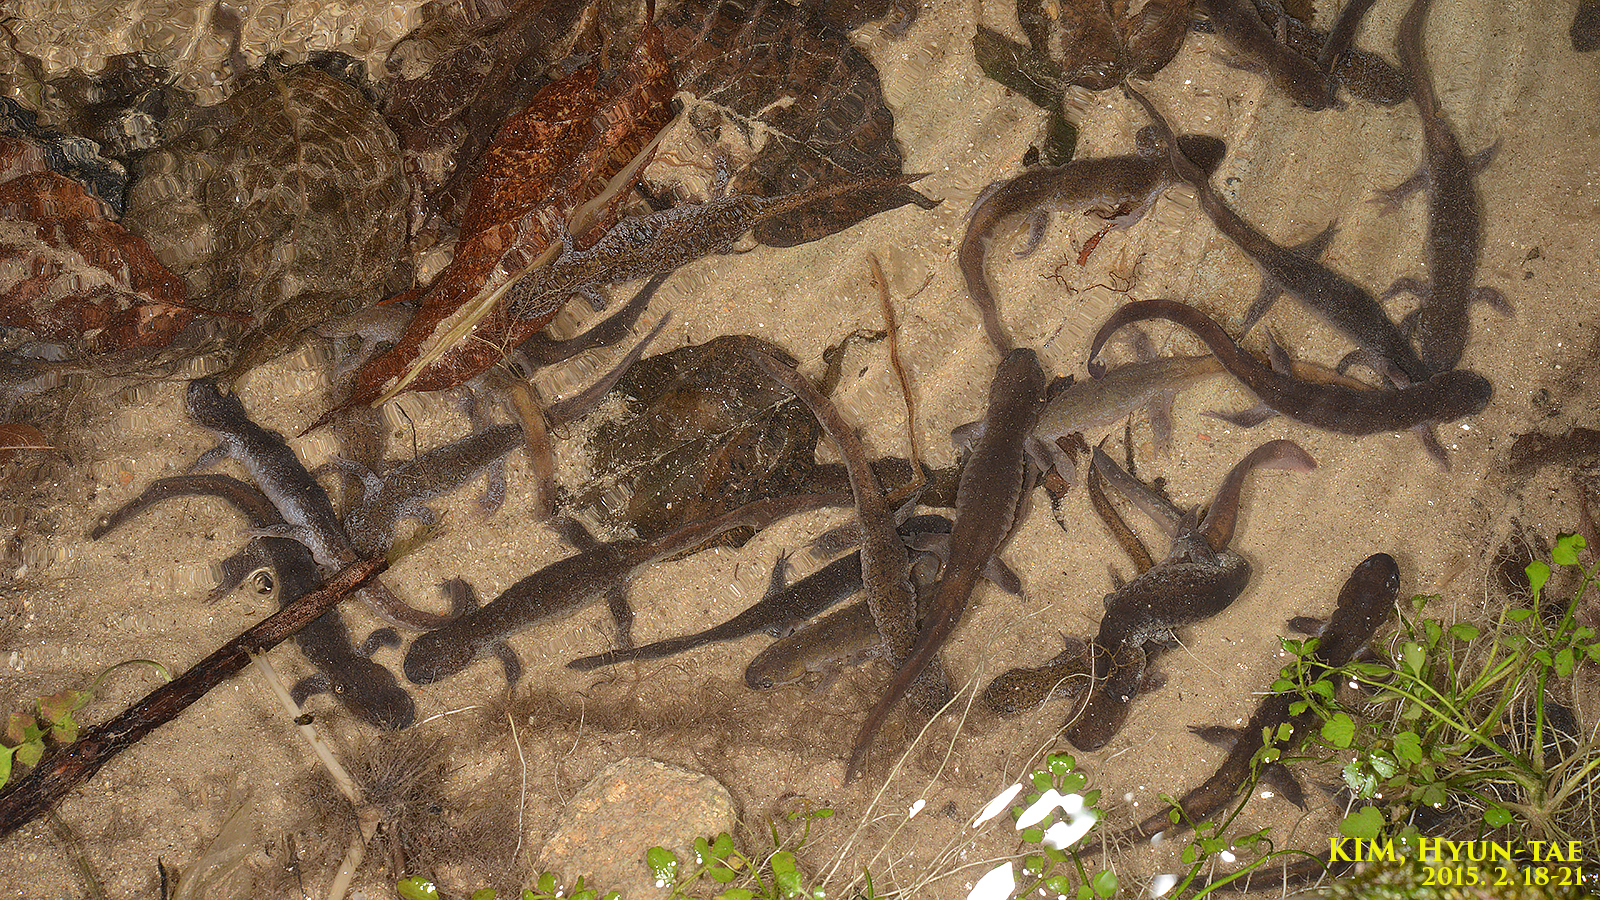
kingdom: Animalia
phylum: Chordata
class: Amphibia
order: Caudata
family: Hynobiidae
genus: Hynobius
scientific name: Hynobius leechii
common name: Gensan salamander
